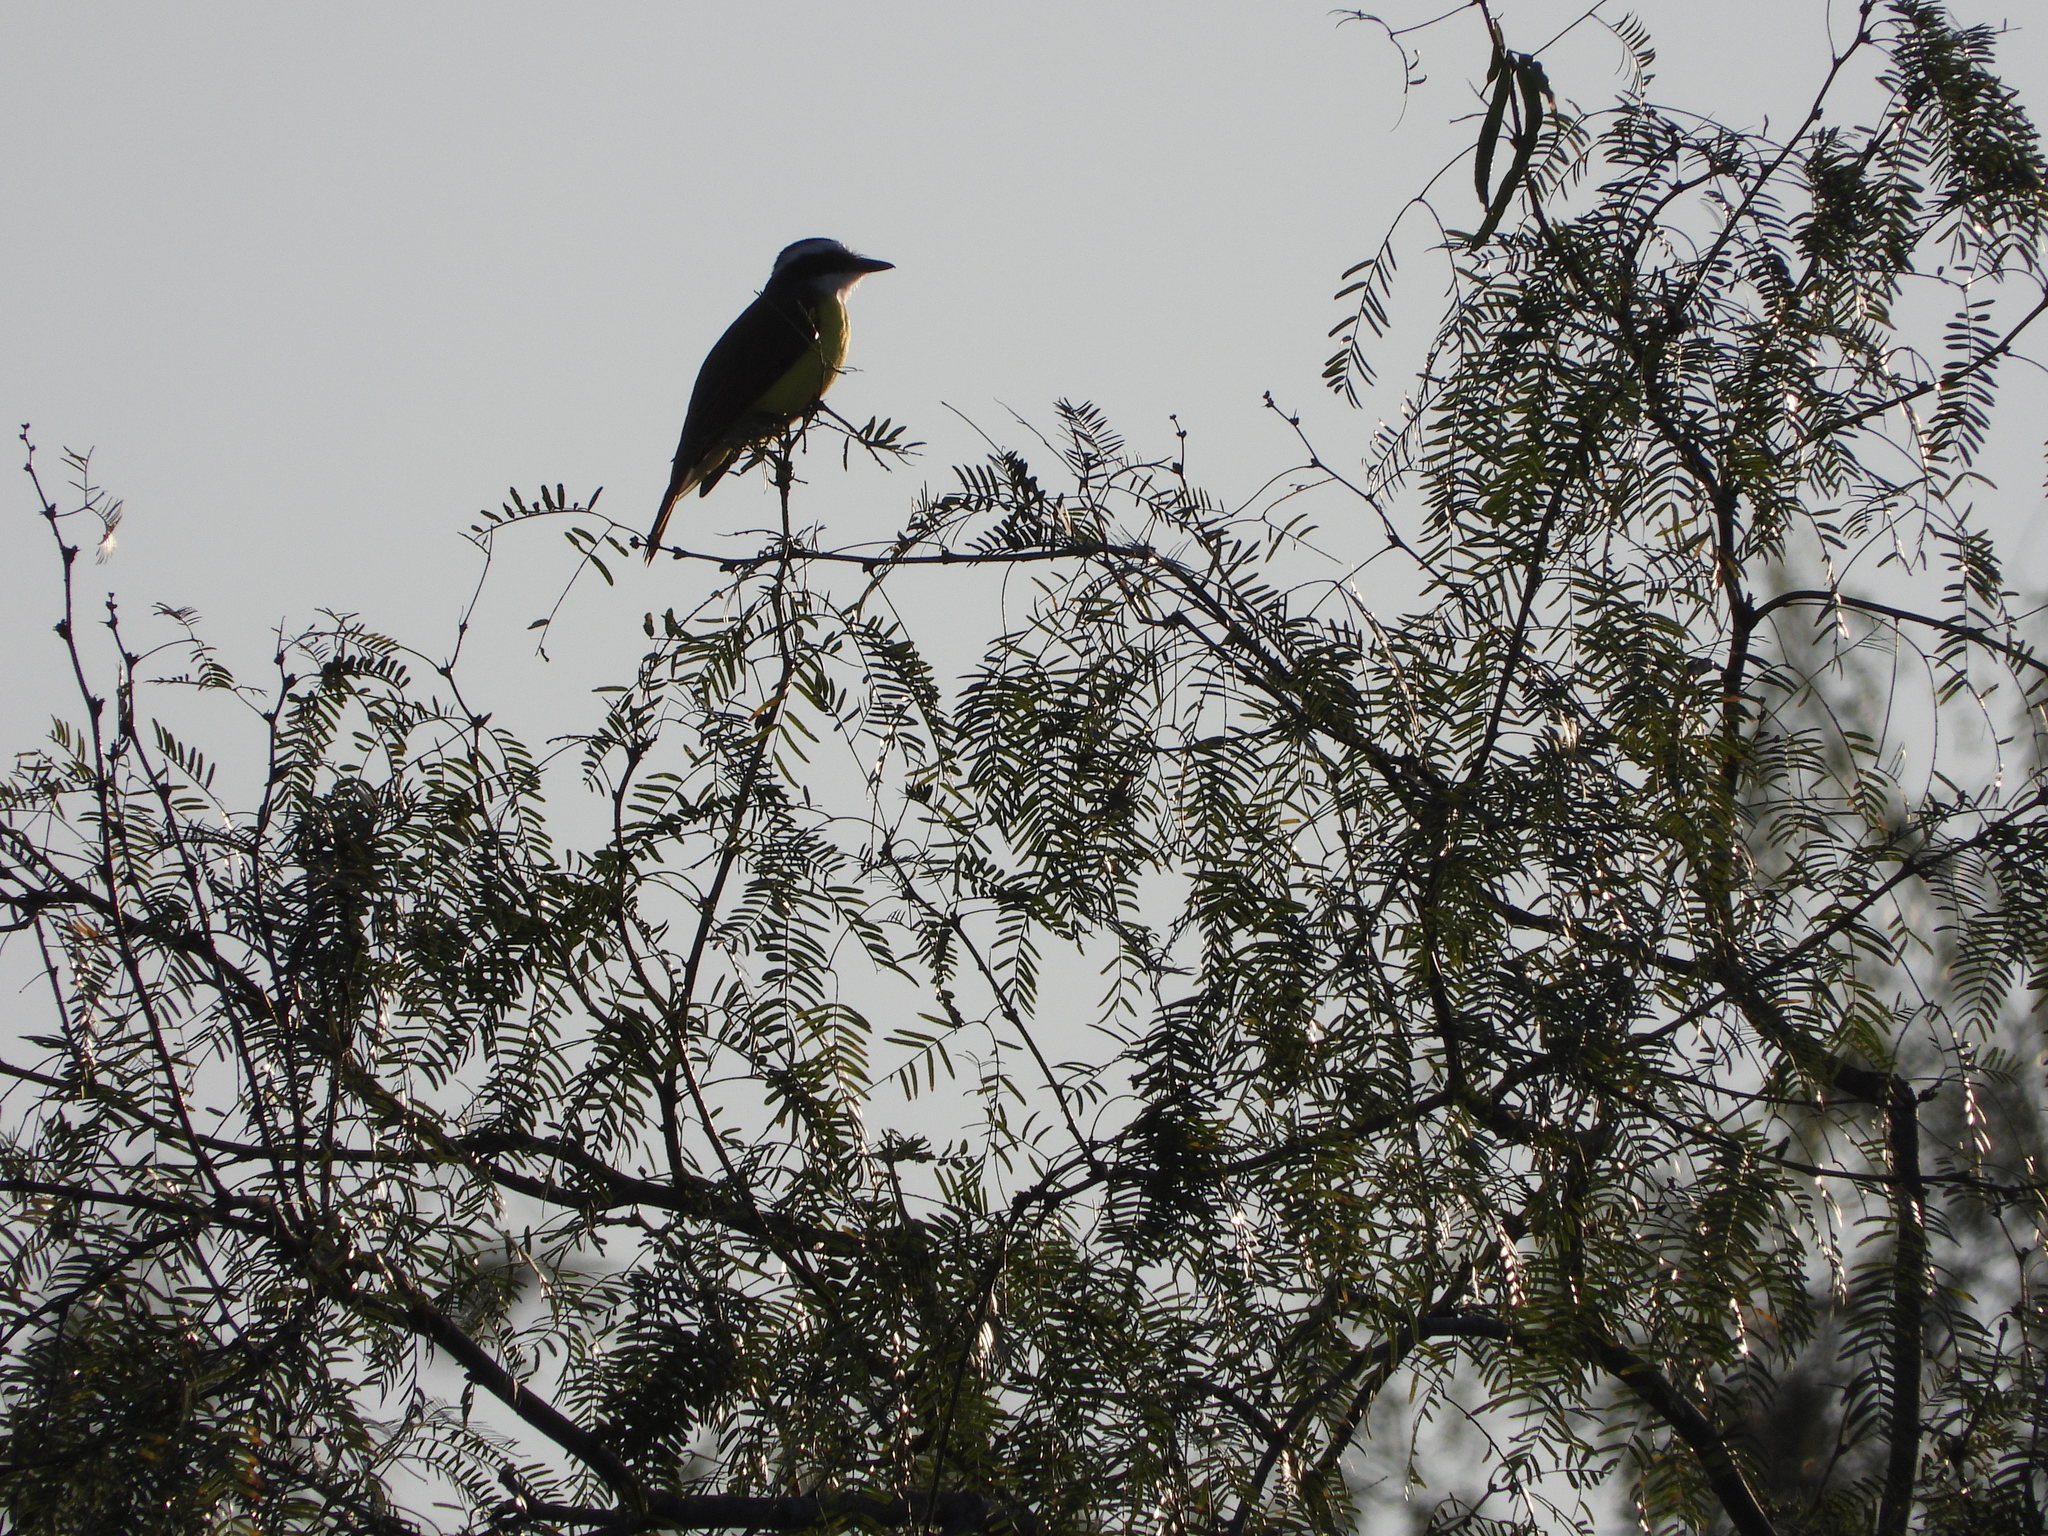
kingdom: Animalia
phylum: Chordata
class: Aves
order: Passeriformes
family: Tyrannidae
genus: Pitangus
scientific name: Pitangus sulphuratus
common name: Great kiskadee
